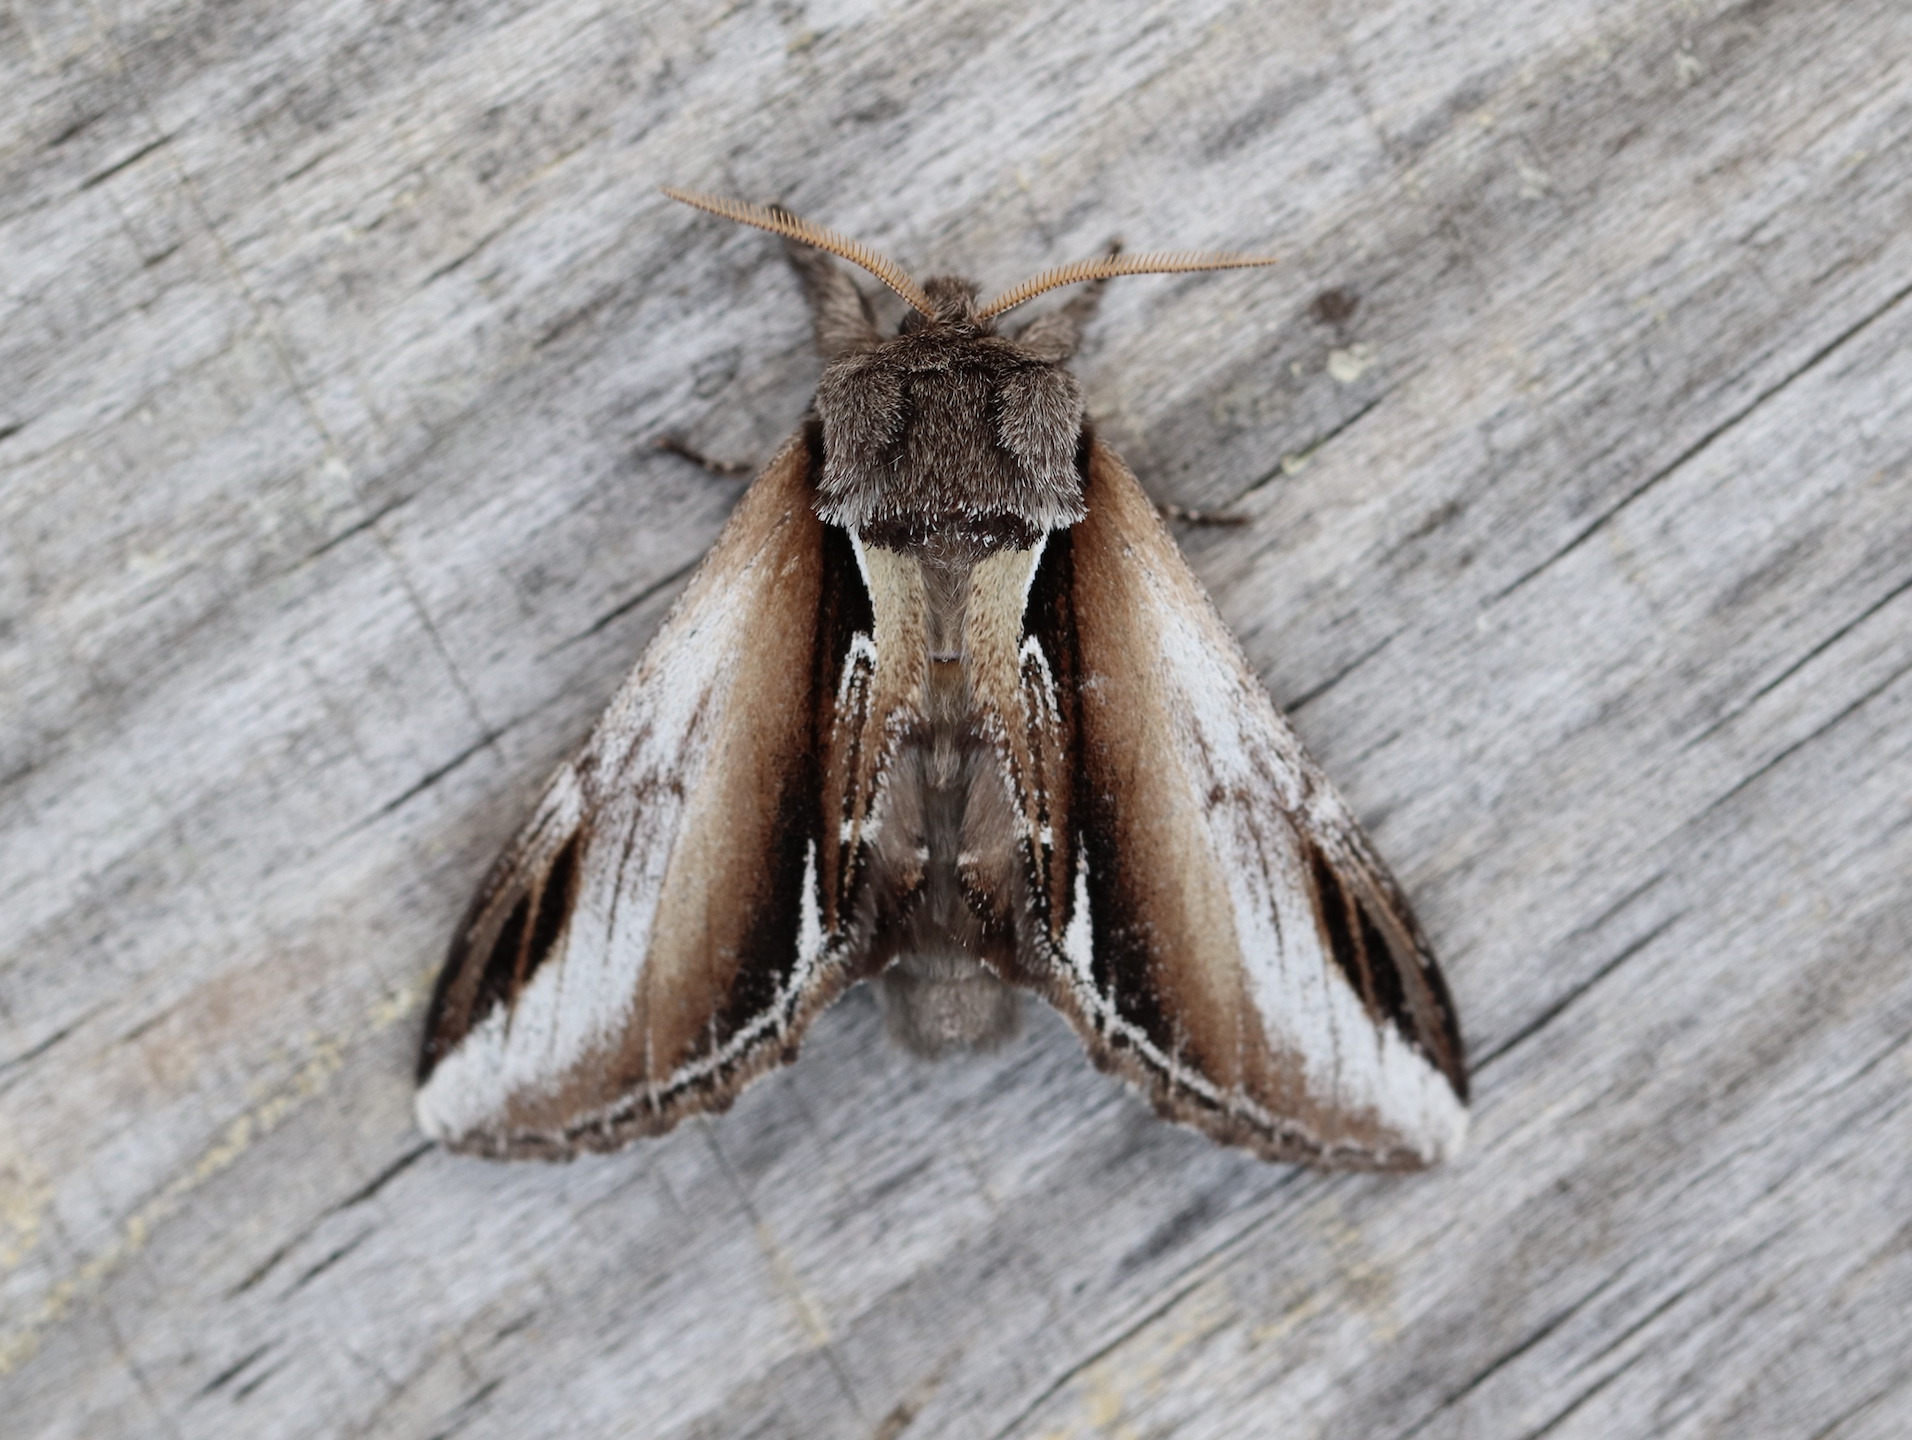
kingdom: Animalia
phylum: Arthropoda
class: Insecta
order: Lepidoptera
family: Notodontidae
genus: Pheosia
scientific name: Pheosia gnoma
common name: Lesser swallow prominent
